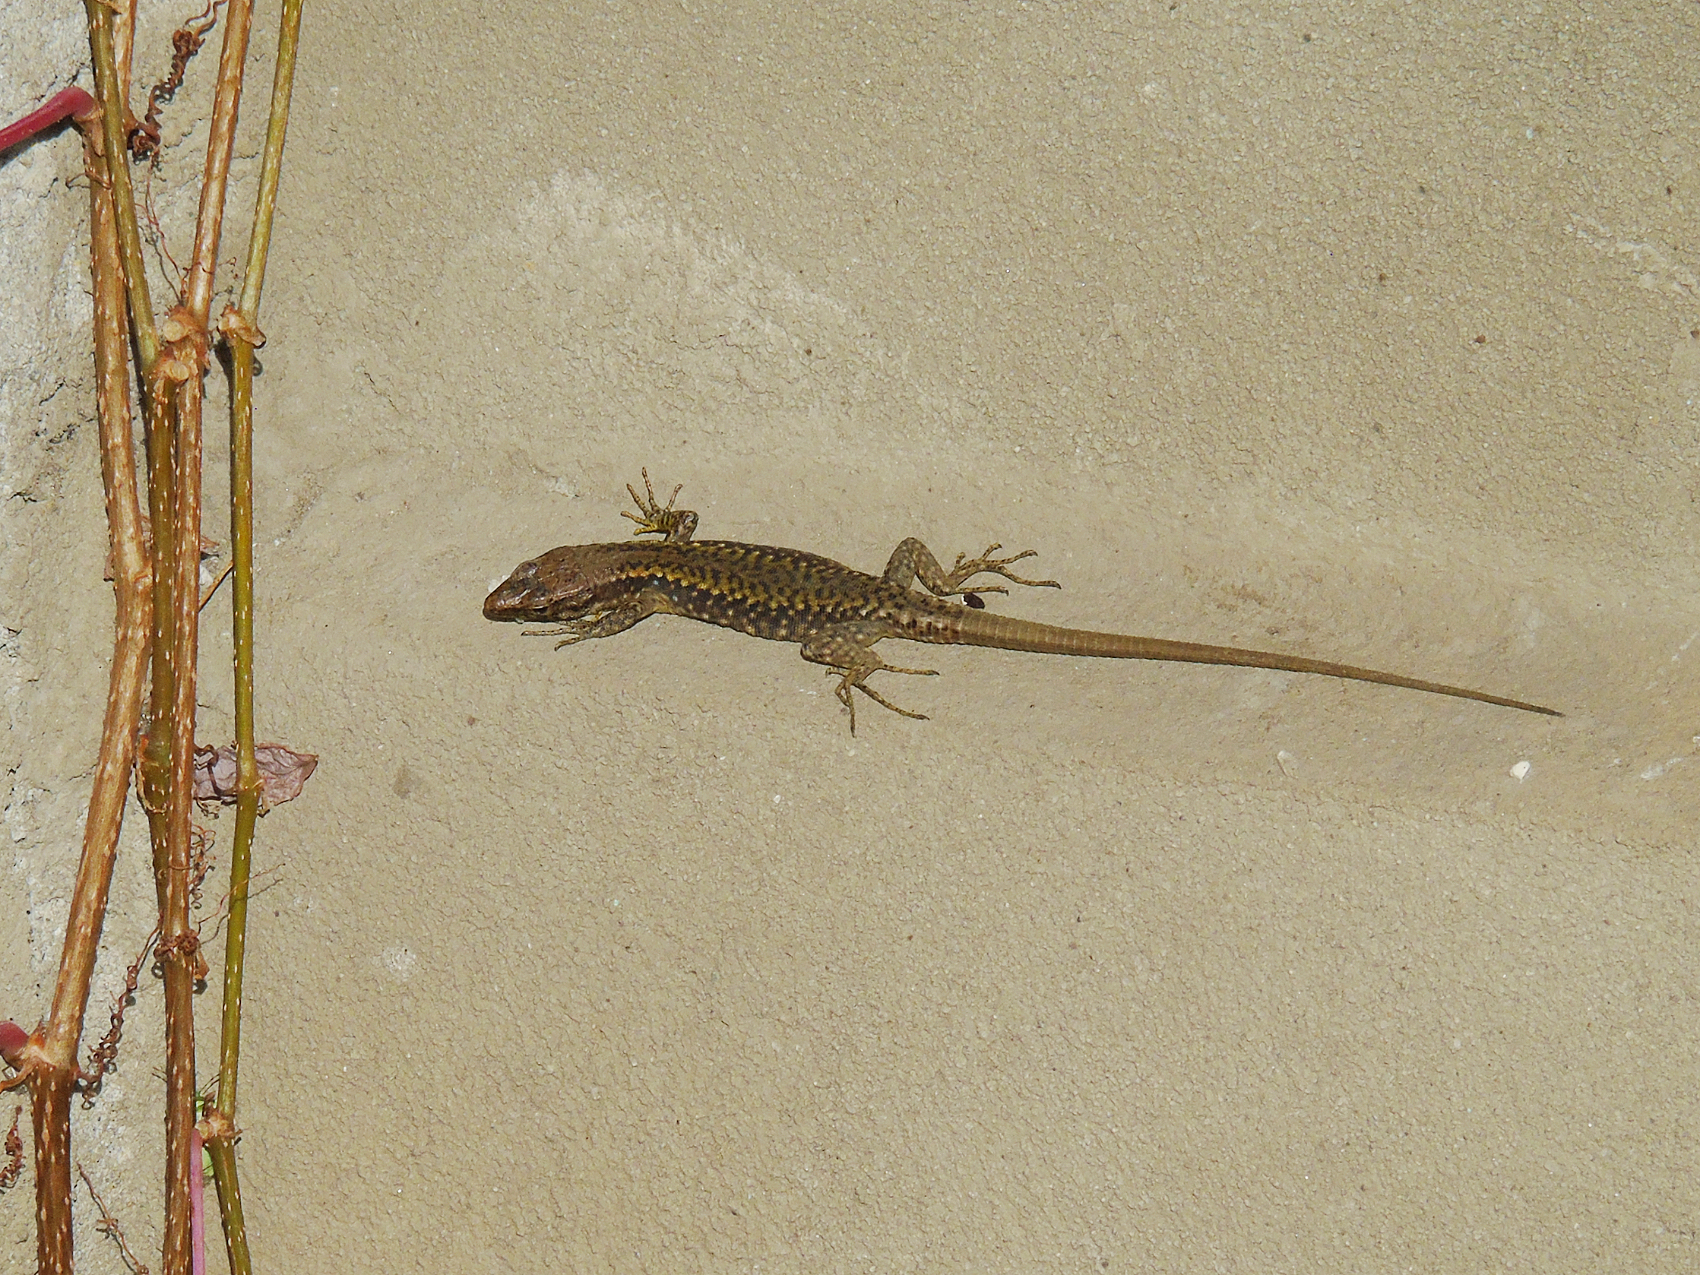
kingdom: Animalia
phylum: Chordata
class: Squamata
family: Lacertidae
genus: Darevskia
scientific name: Darevskia rudis
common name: Spiny-tailed lizard
